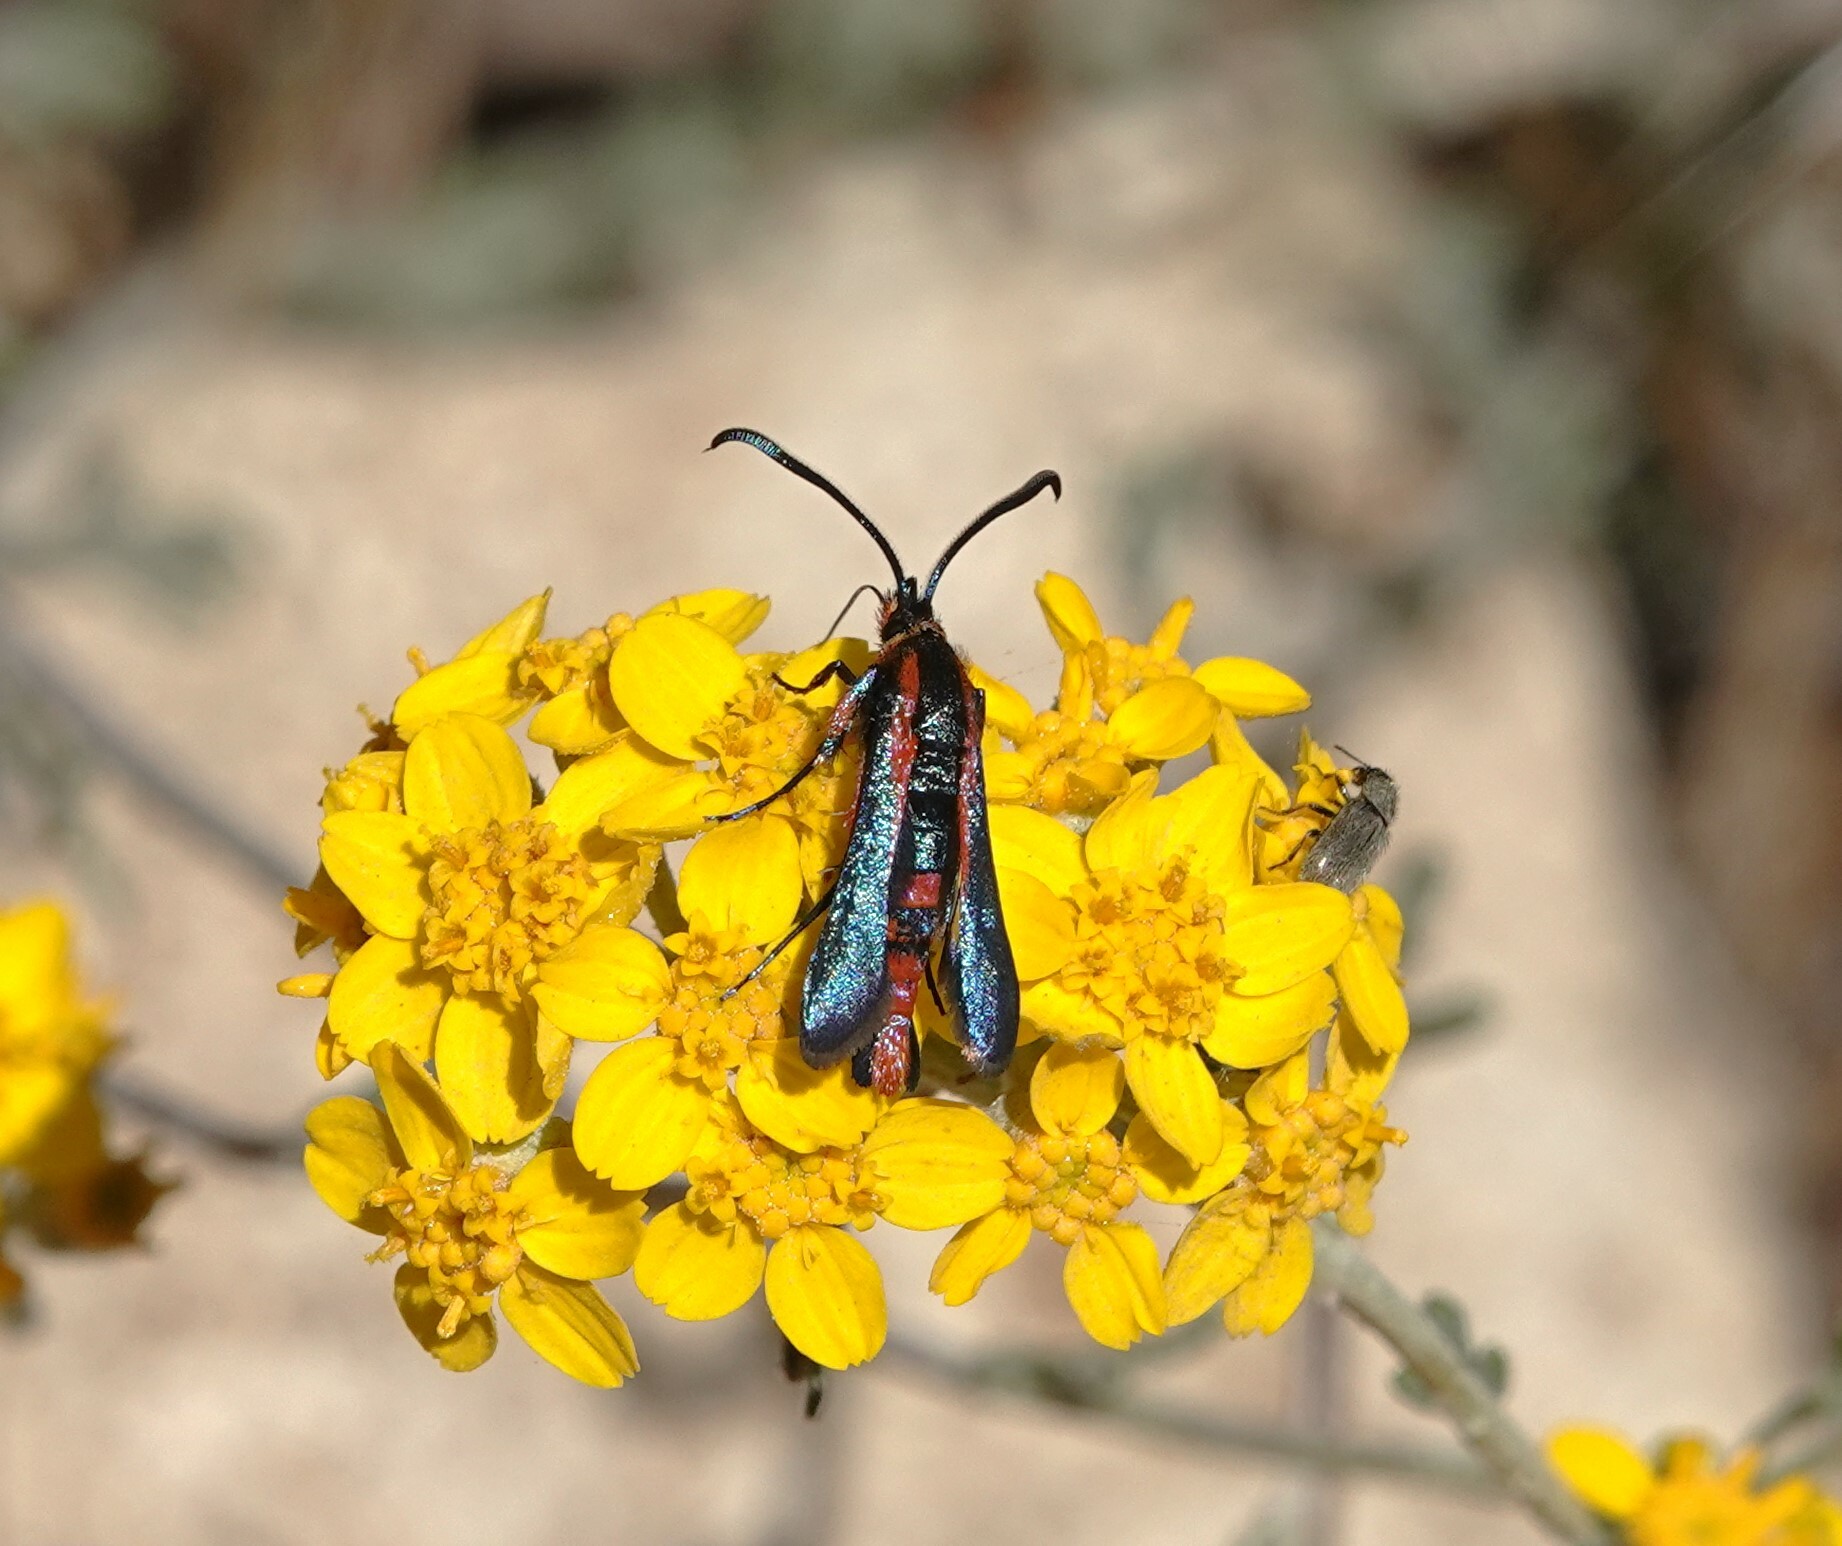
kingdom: Animalia
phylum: Arthropoda
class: Insecta
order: Lepidoptera
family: Sesiidae
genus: Synanthedon
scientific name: Synanthedon polygoni
